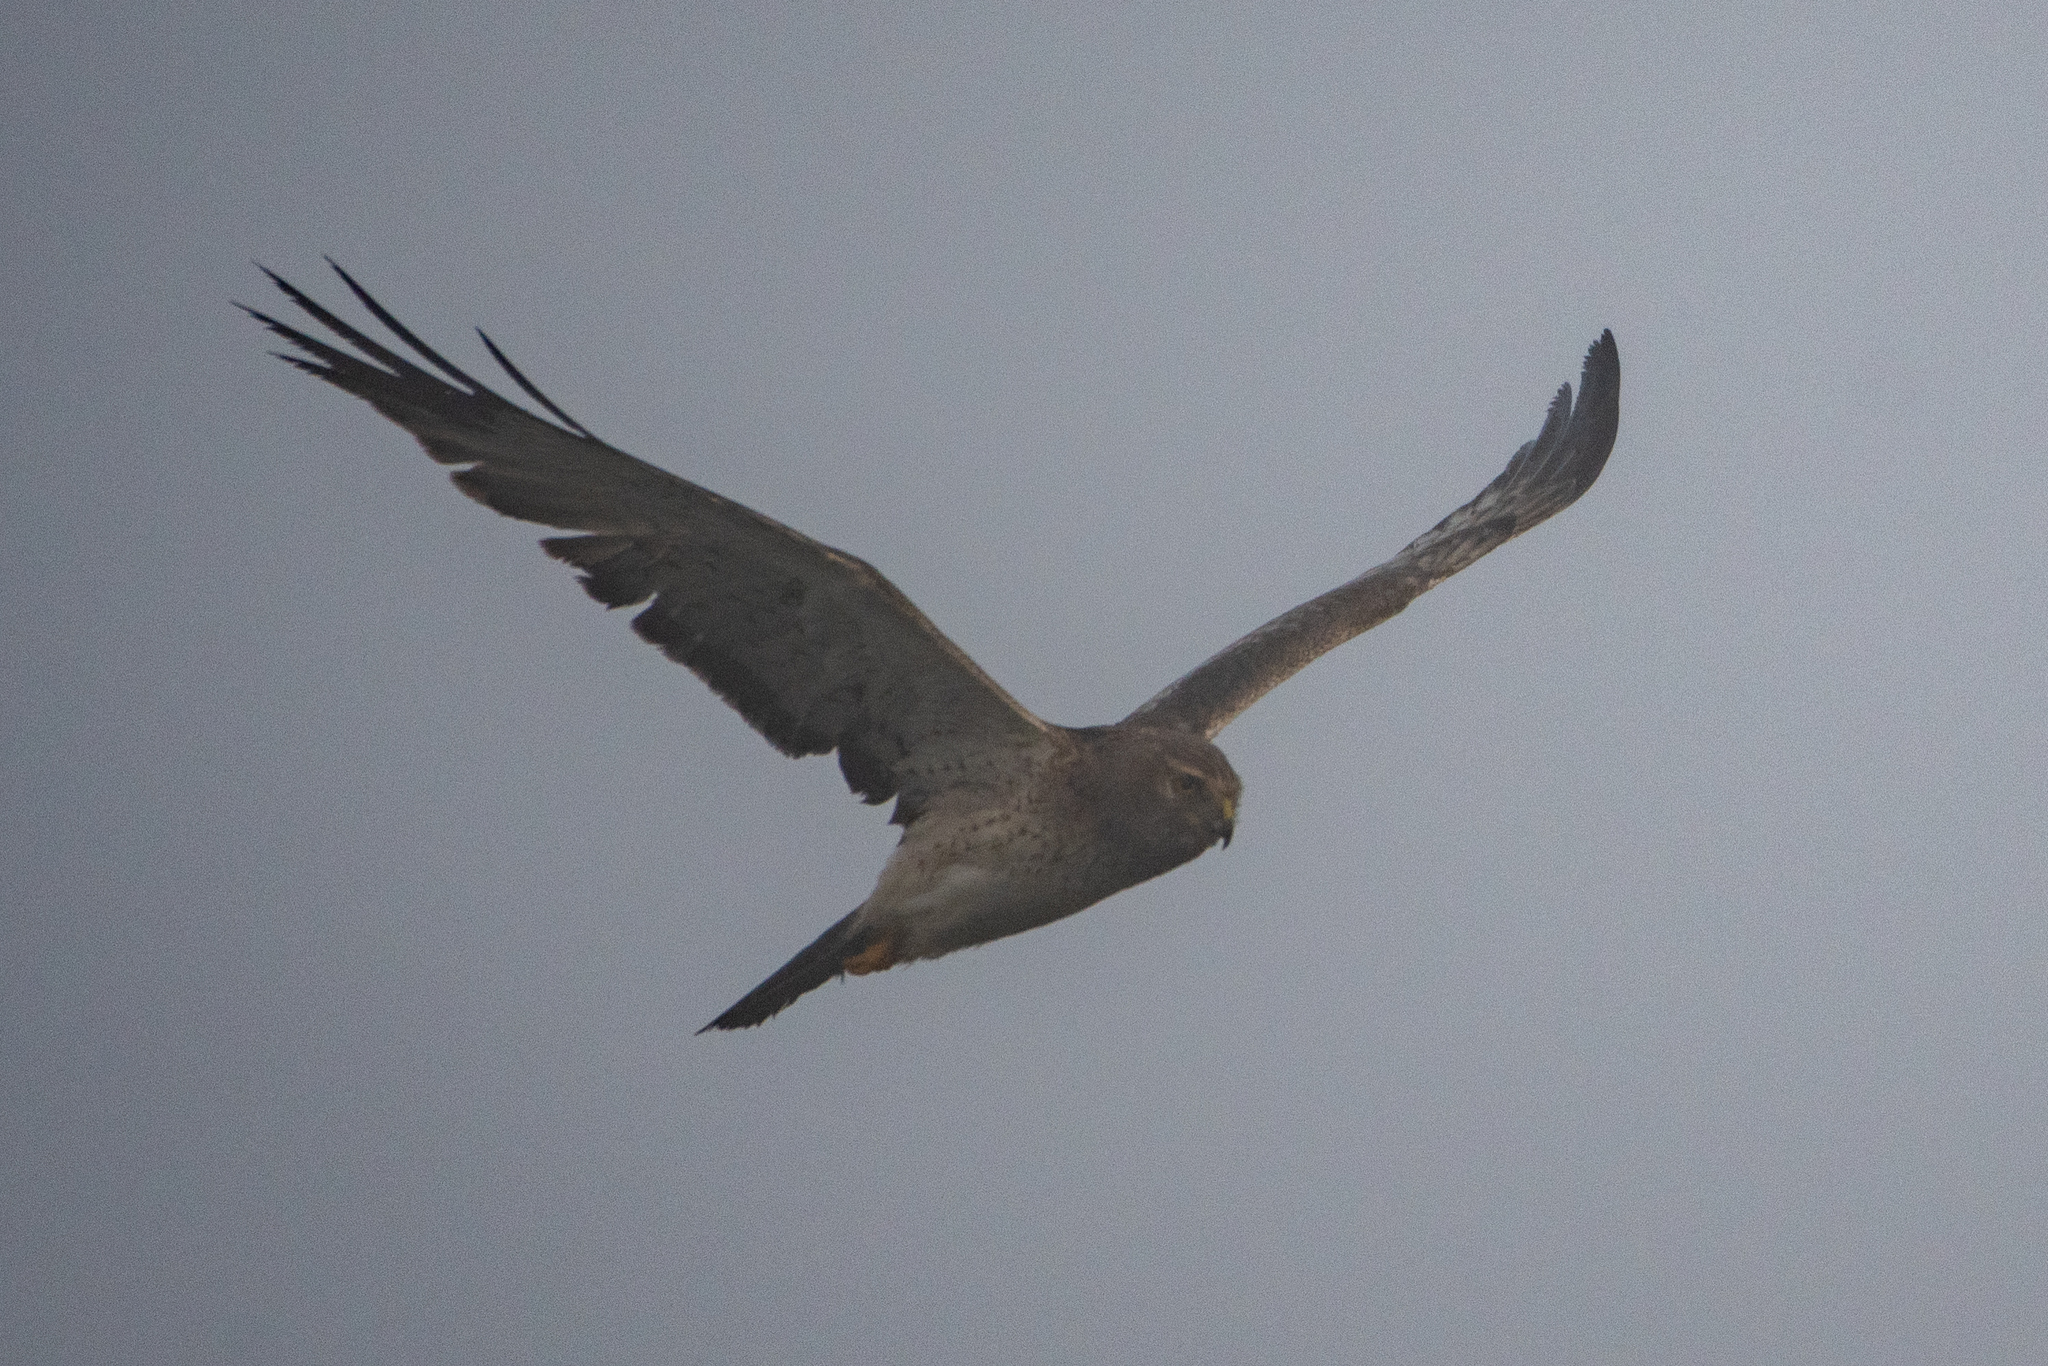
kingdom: Animalia
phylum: Chordata
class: Aves
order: Accipitriformes
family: Accipitridae
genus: Circus
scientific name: Circus cyaneus
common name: Hen harrier
